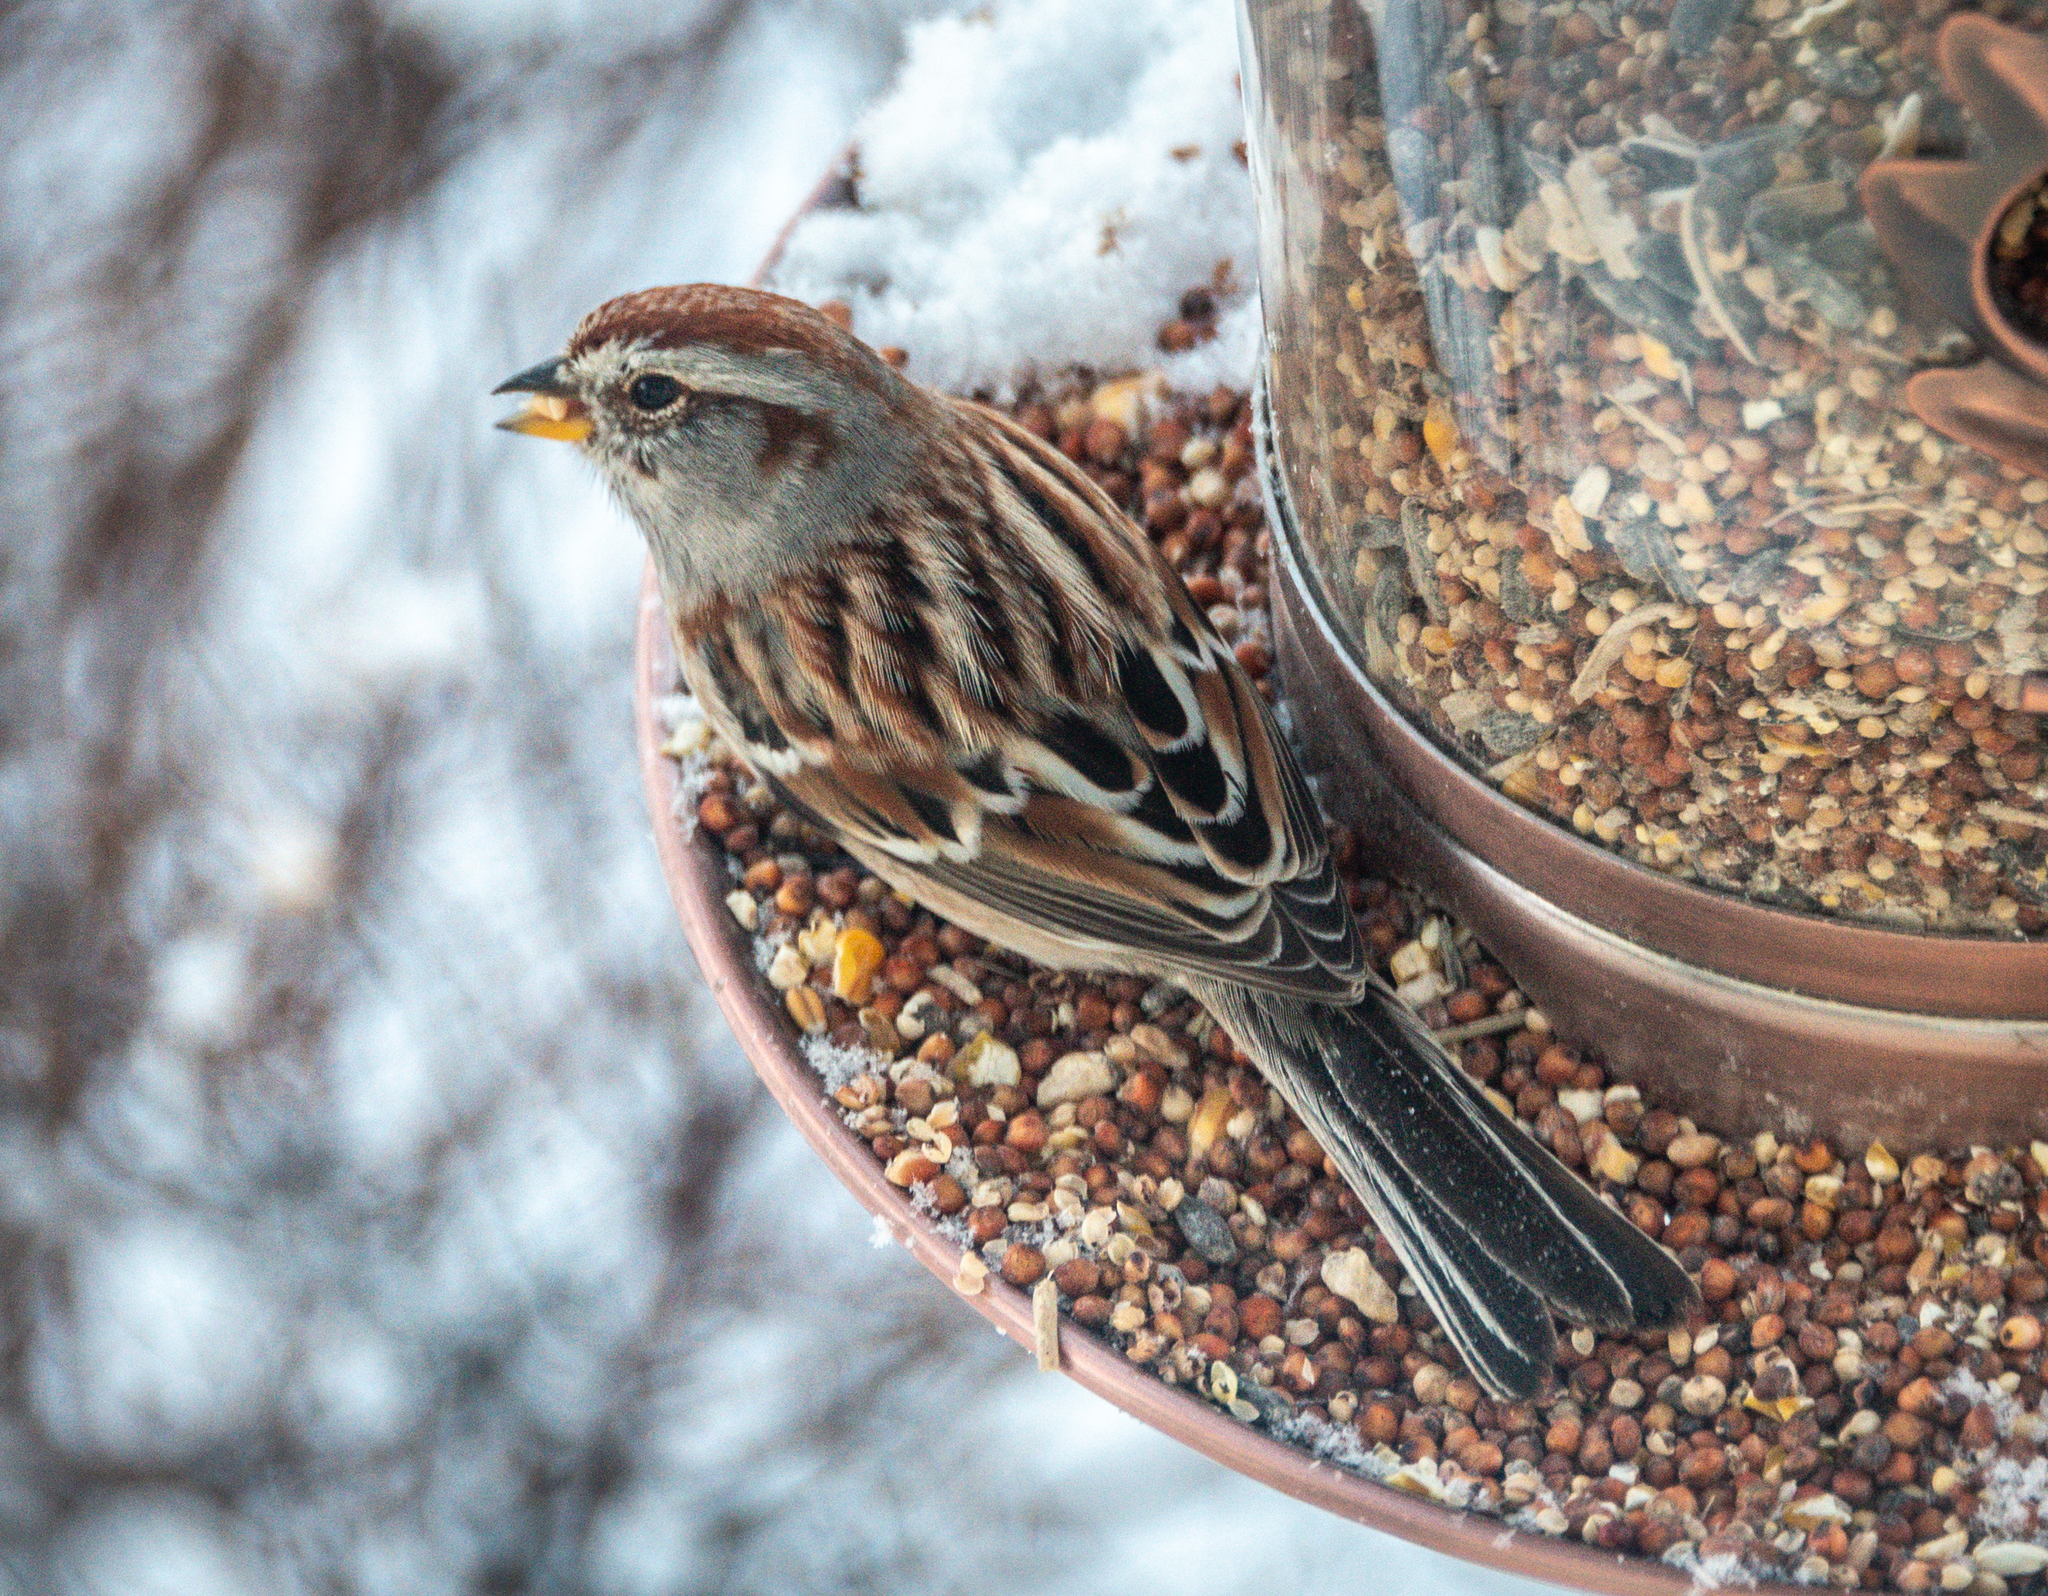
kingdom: Animalia
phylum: Chordata
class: Aves
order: Passeriformes
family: Passerellidae
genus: Spizelloides
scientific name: Spizelloides arborea
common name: American tree sparrow
